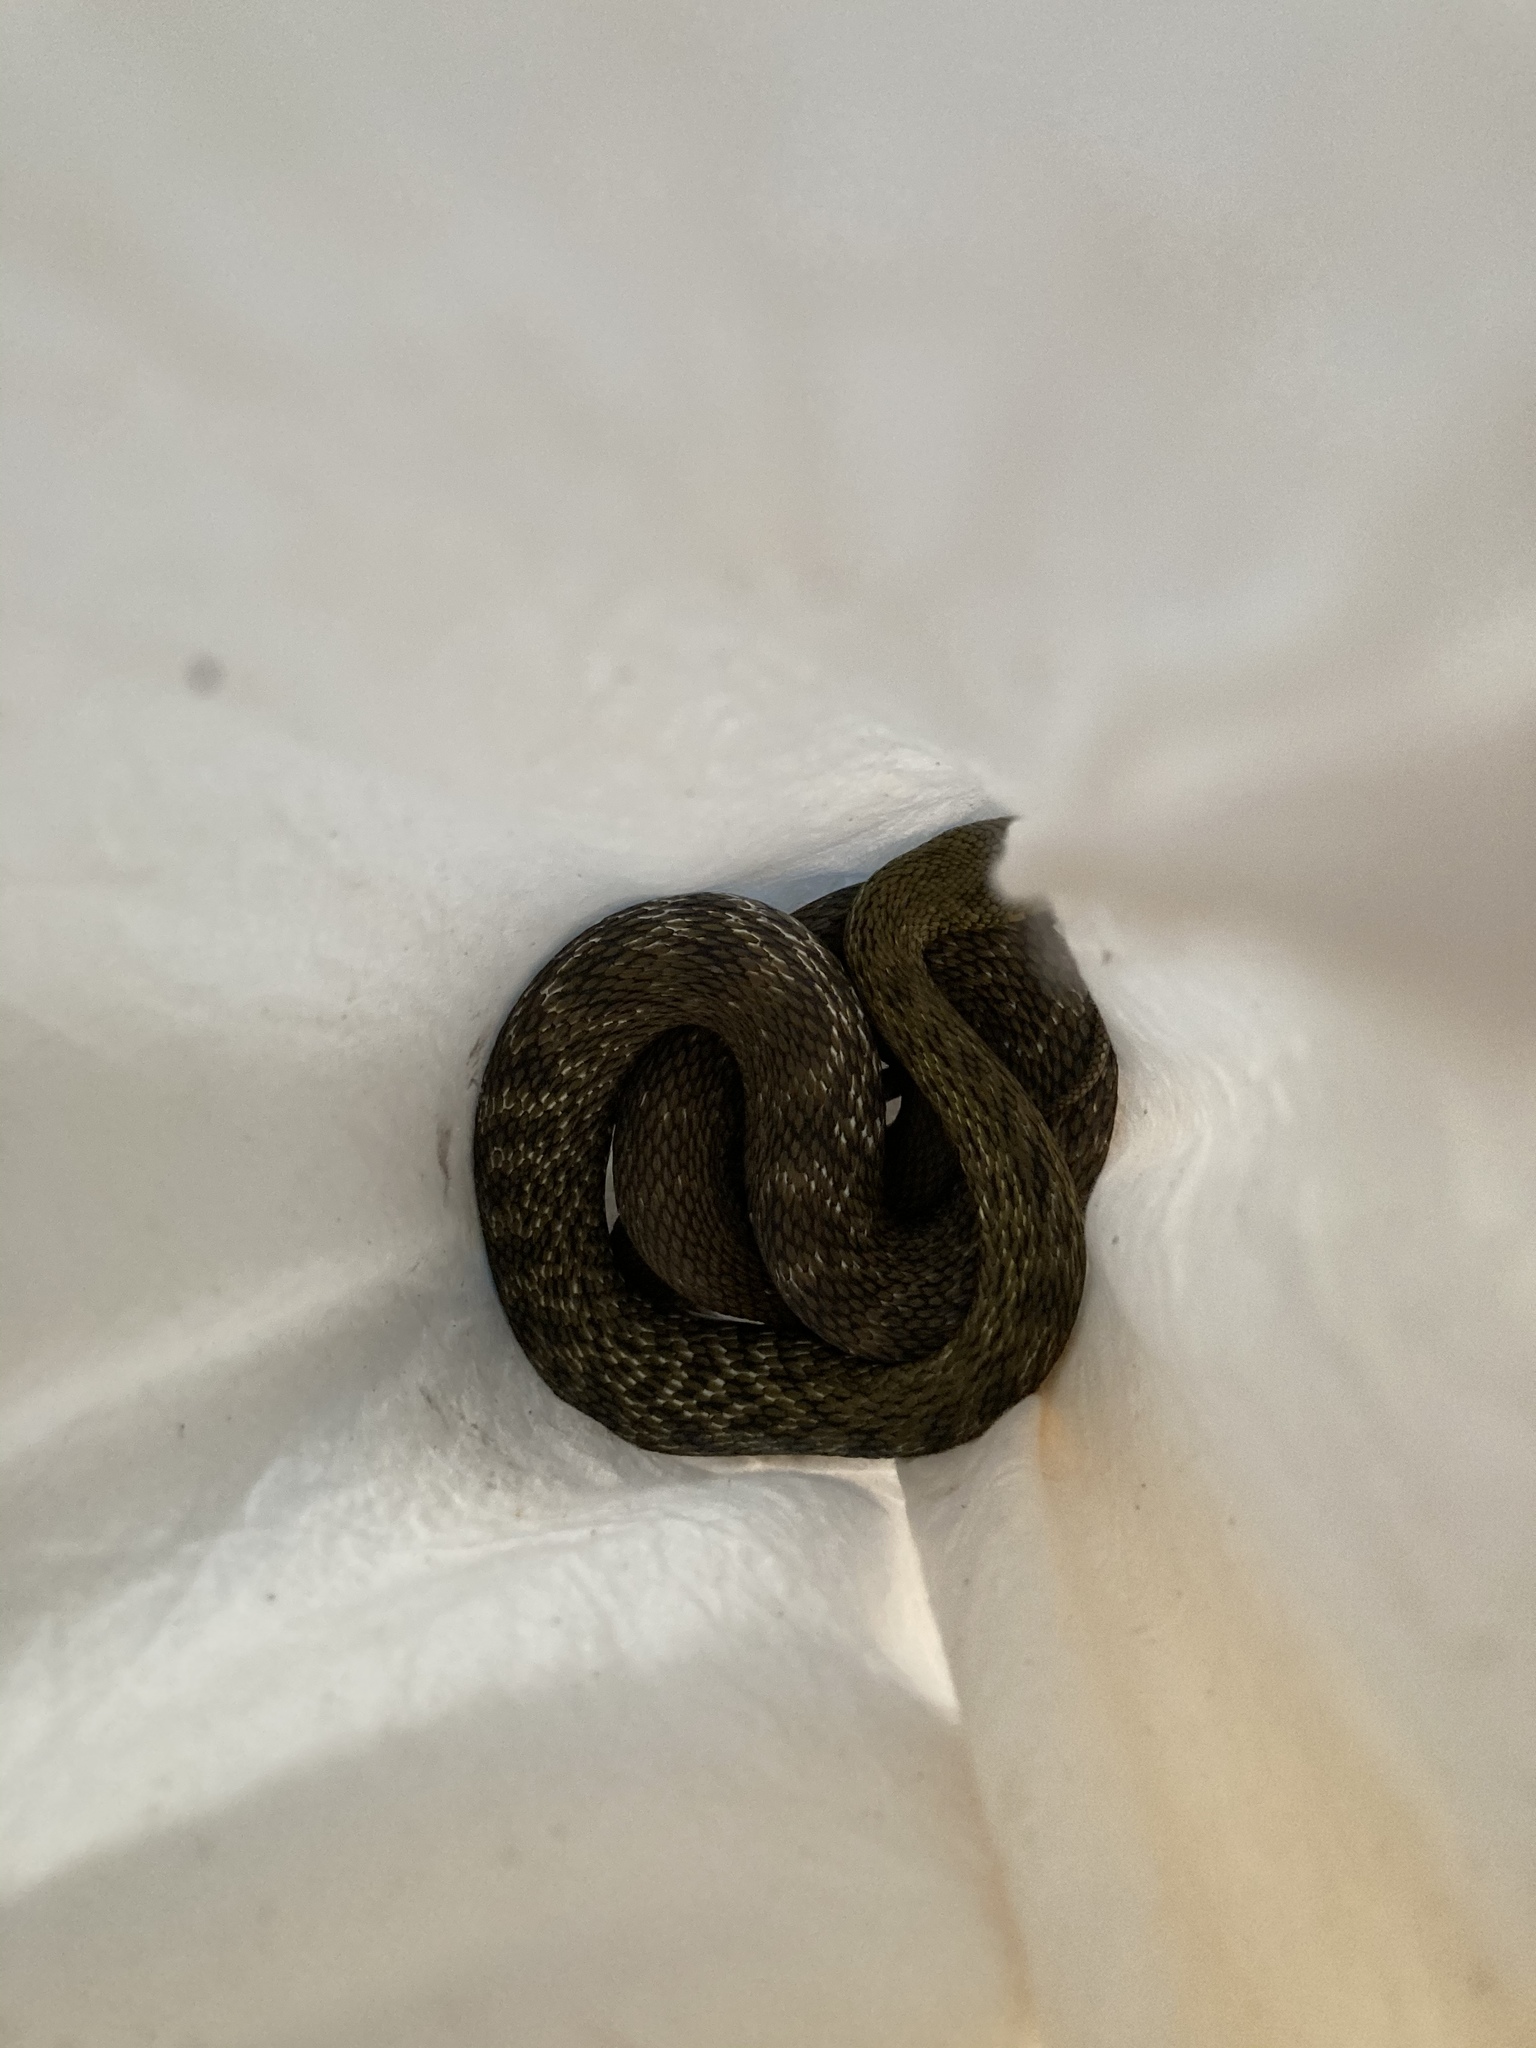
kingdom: Animalia
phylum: Chordata
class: Squamata
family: Colubridae
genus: Elaphe
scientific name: Elaphe carinata
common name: Taiwan stink snake
